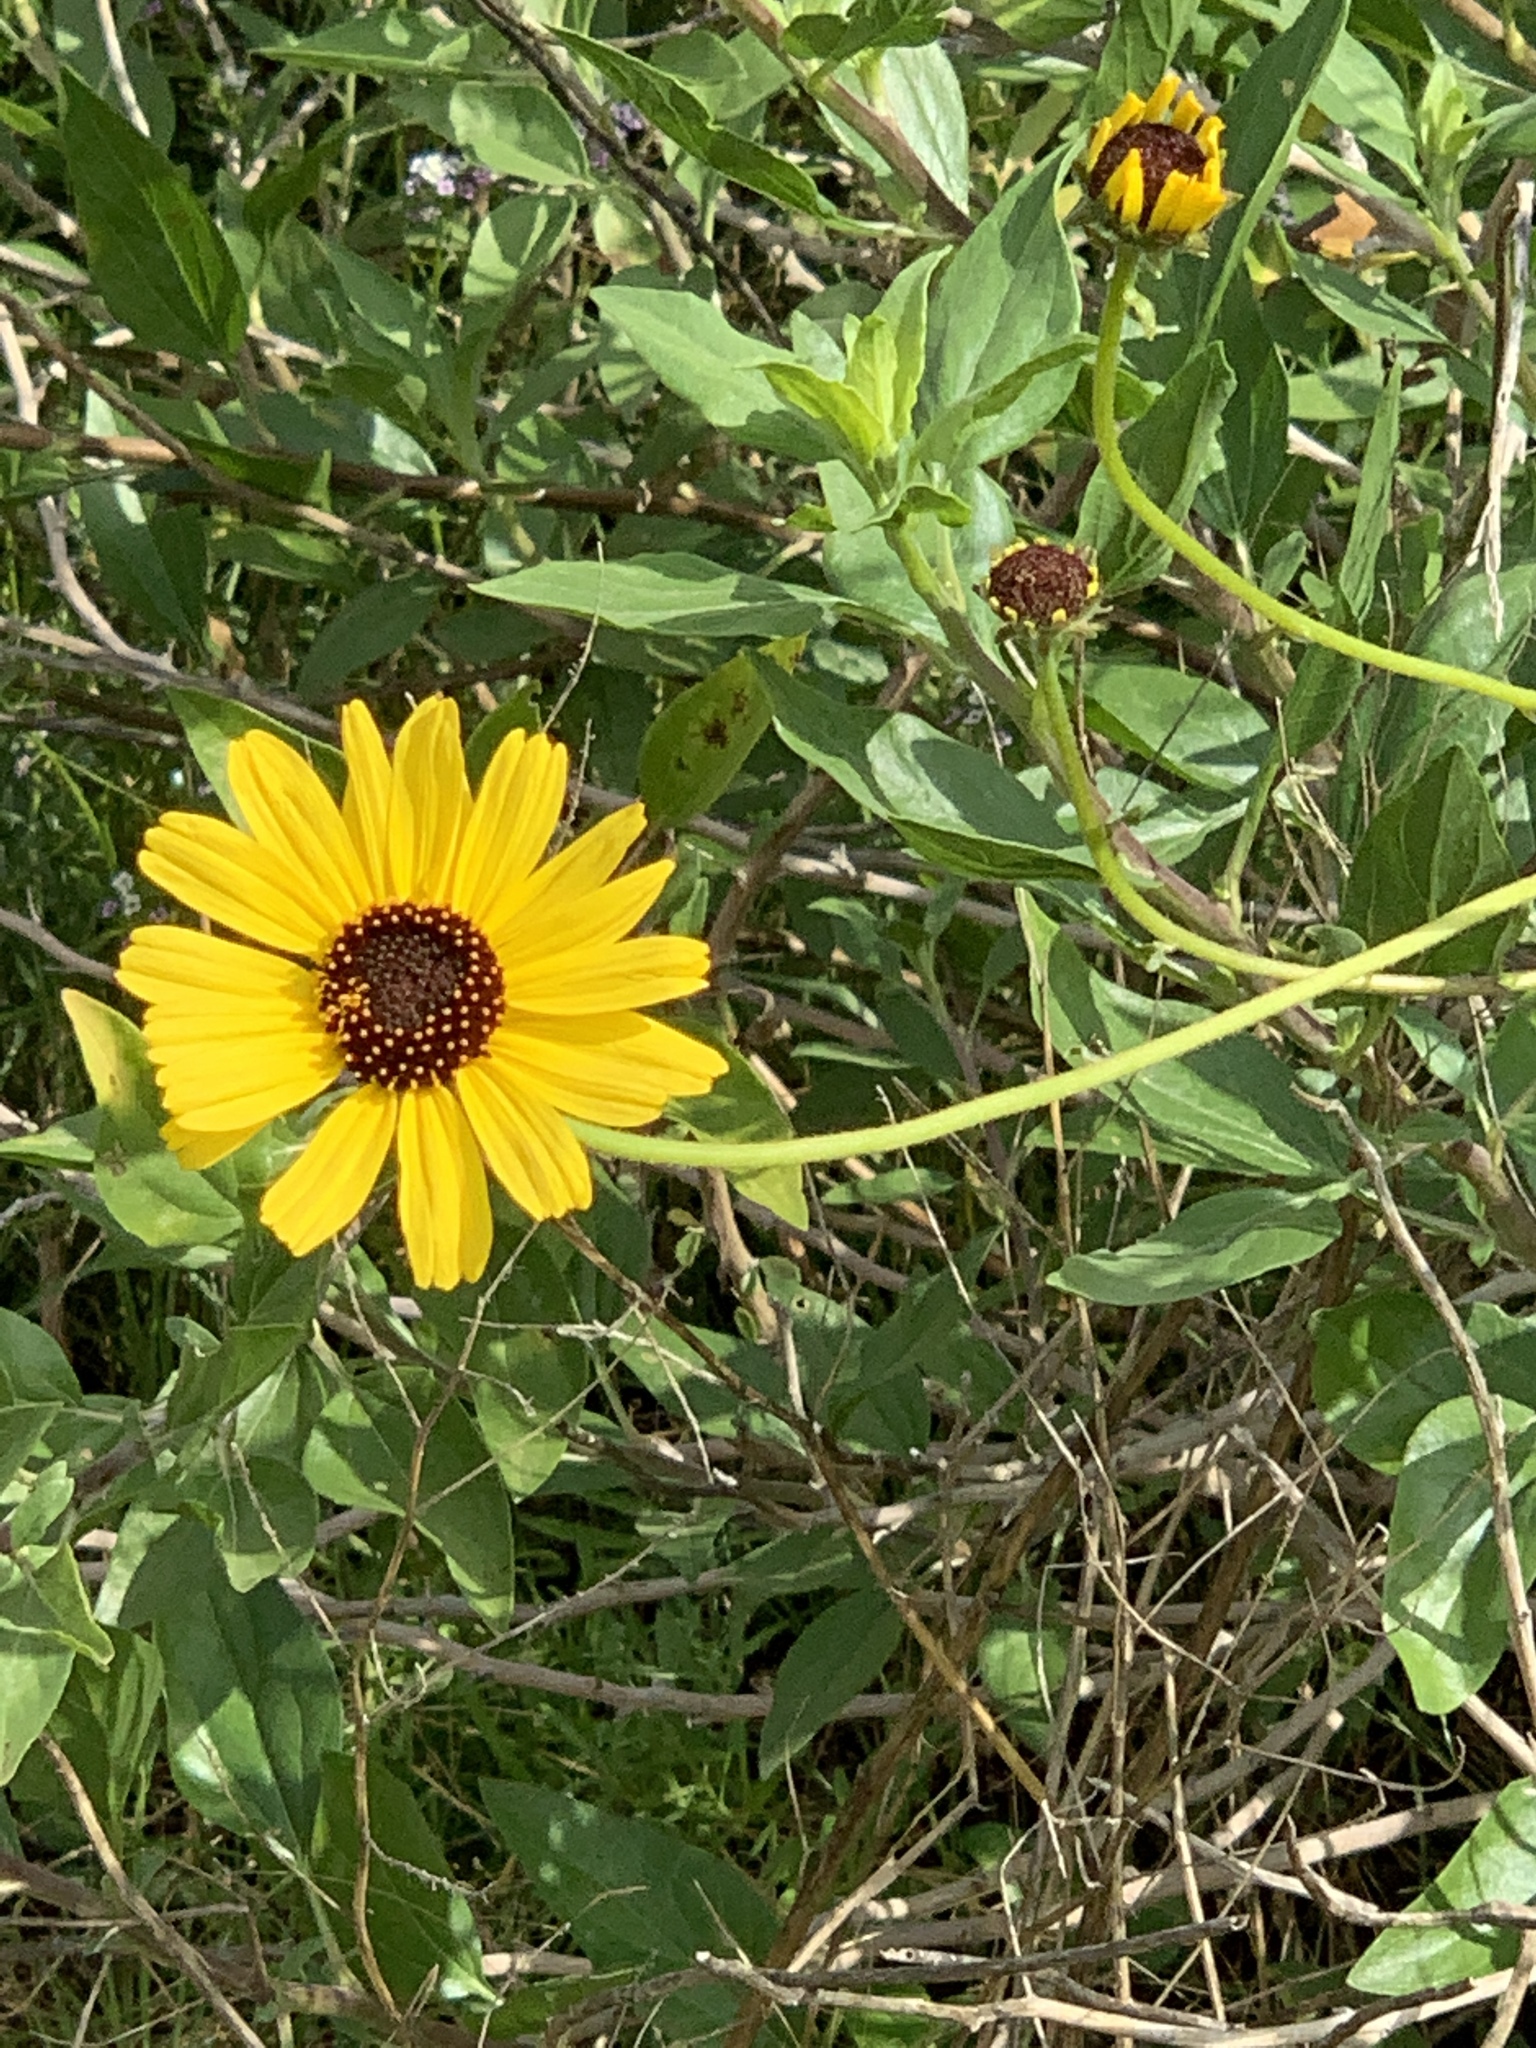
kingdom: Plantae
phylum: Tracheophyta
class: Magnoliopsida
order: Asterales
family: Asteraceae
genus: Encelia
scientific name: Encelia californica
